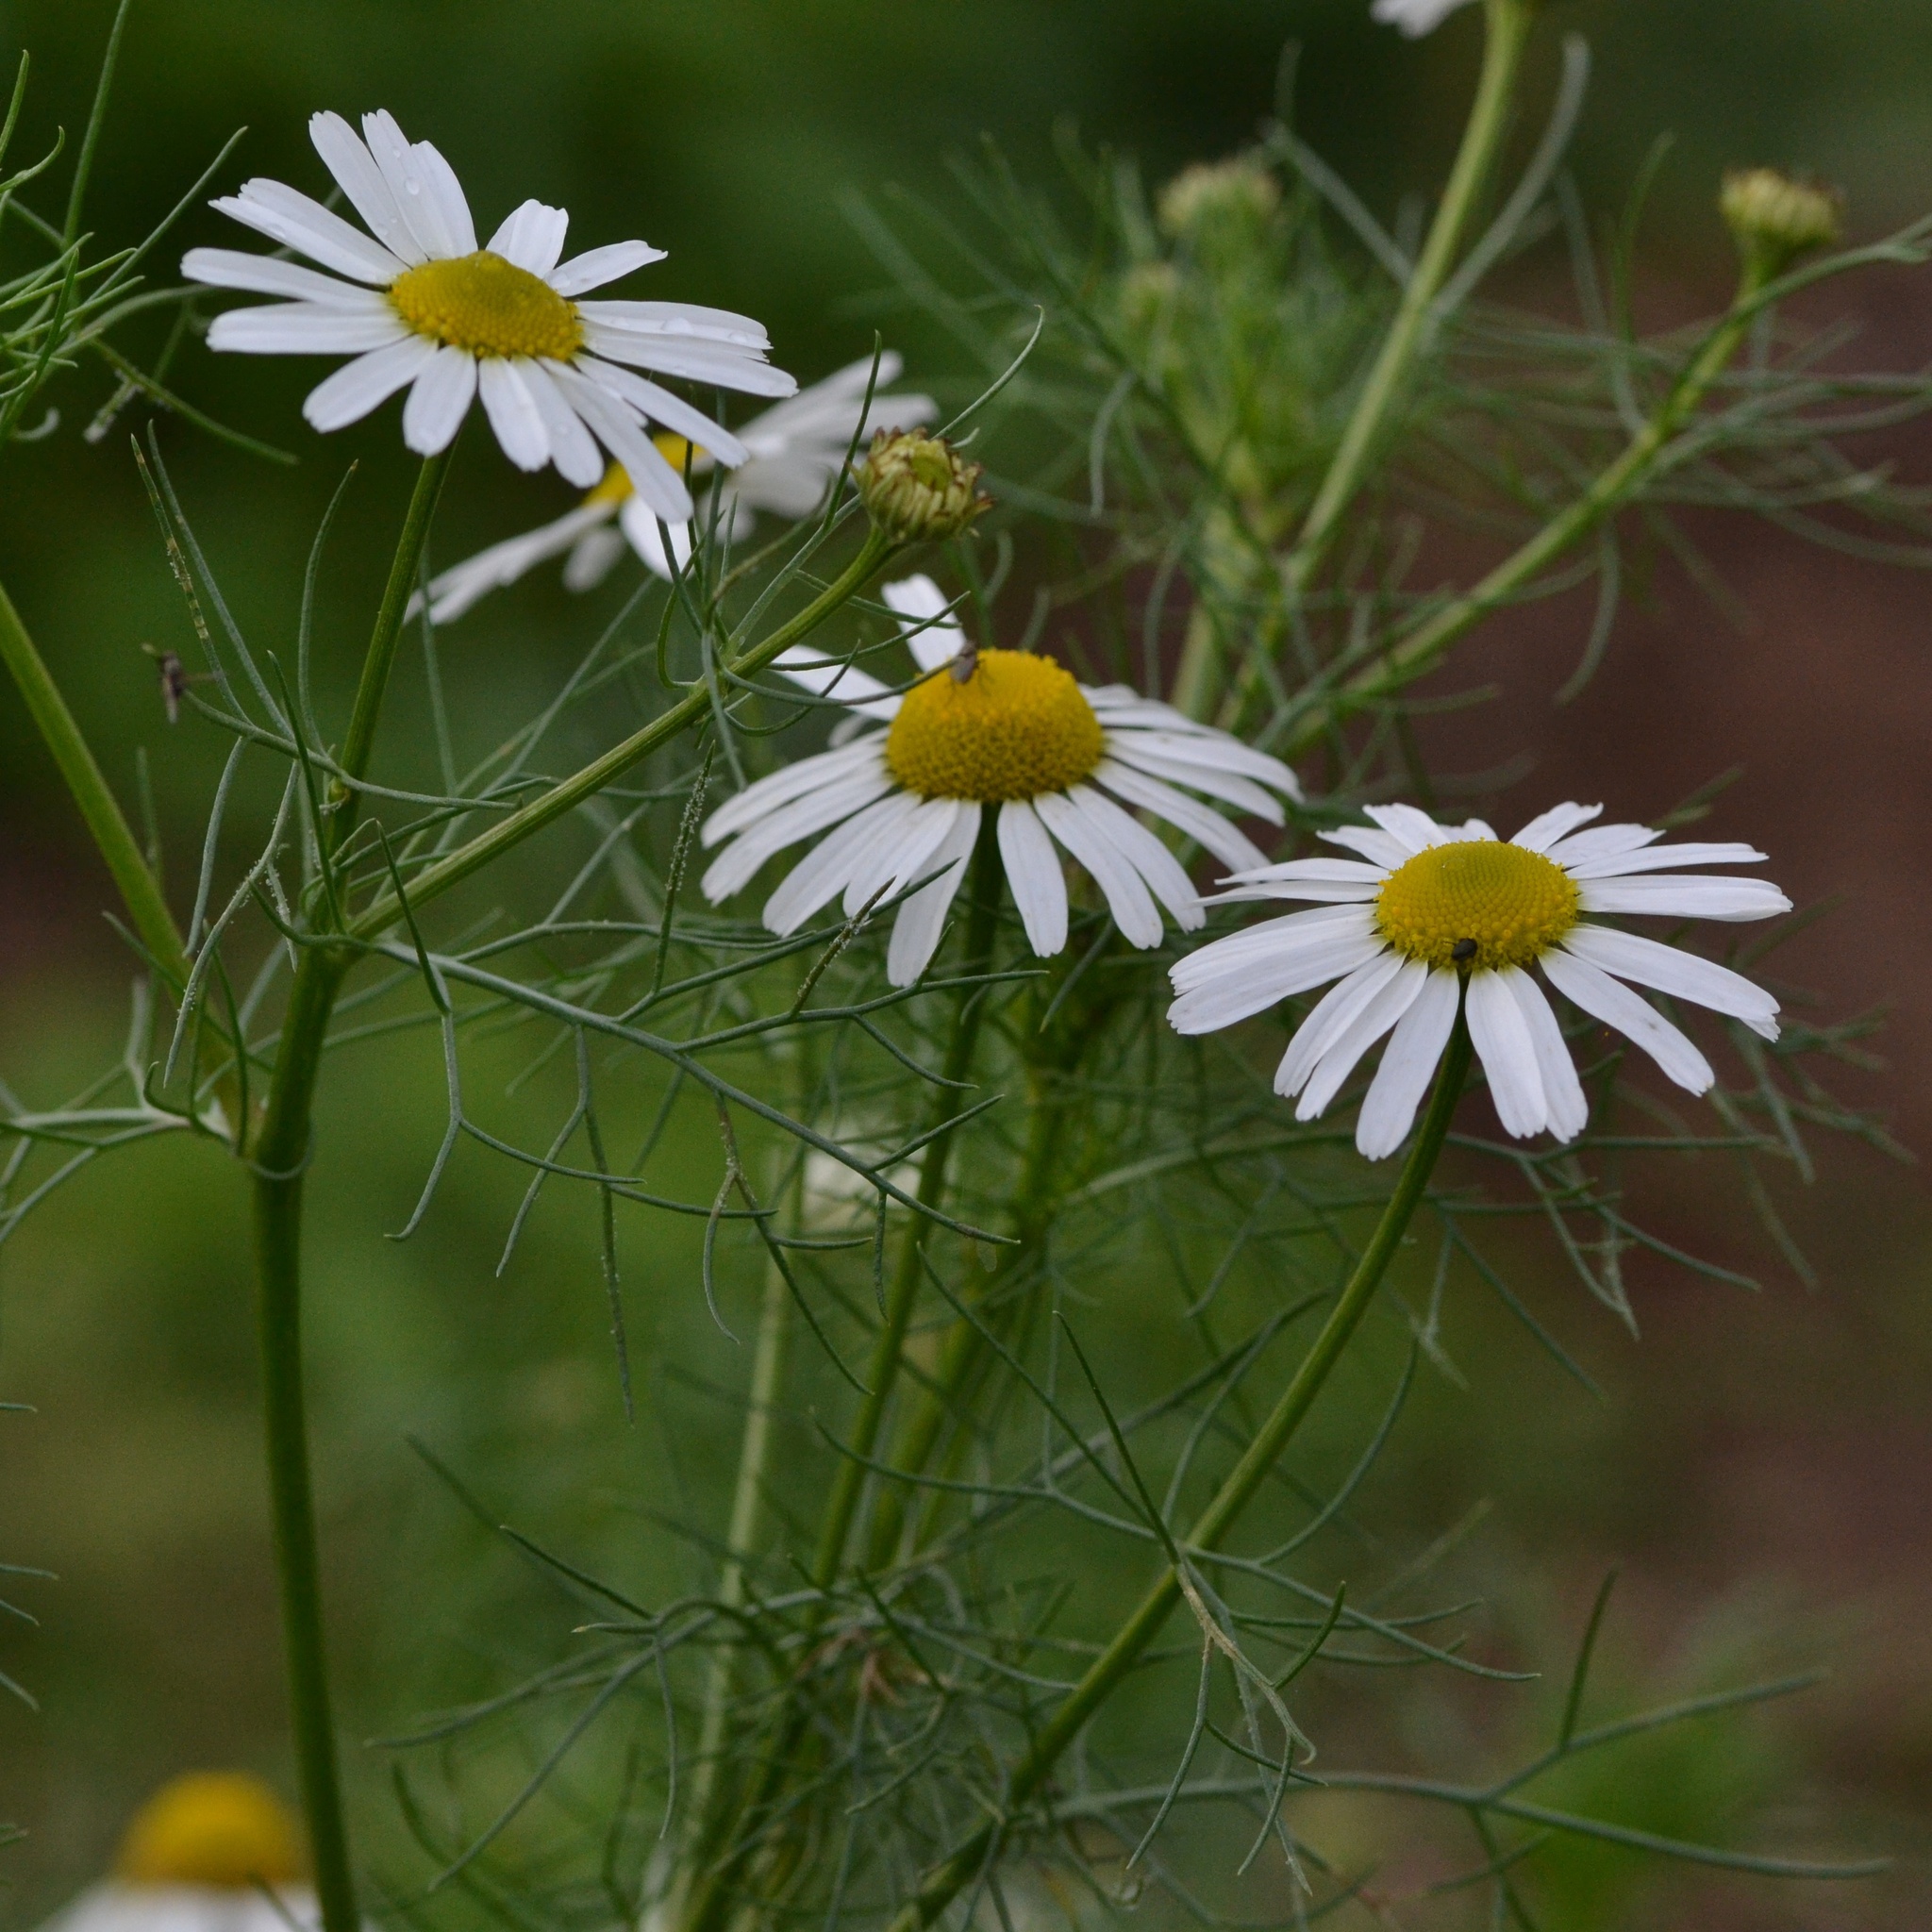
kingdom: Plantae
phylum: Tracheophyta
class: Magnoliopsida
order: Asterales
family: Asteraceae
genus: Tripleurospermum
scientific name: Tripleurospermum inodorum
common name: Scentless mayweed
